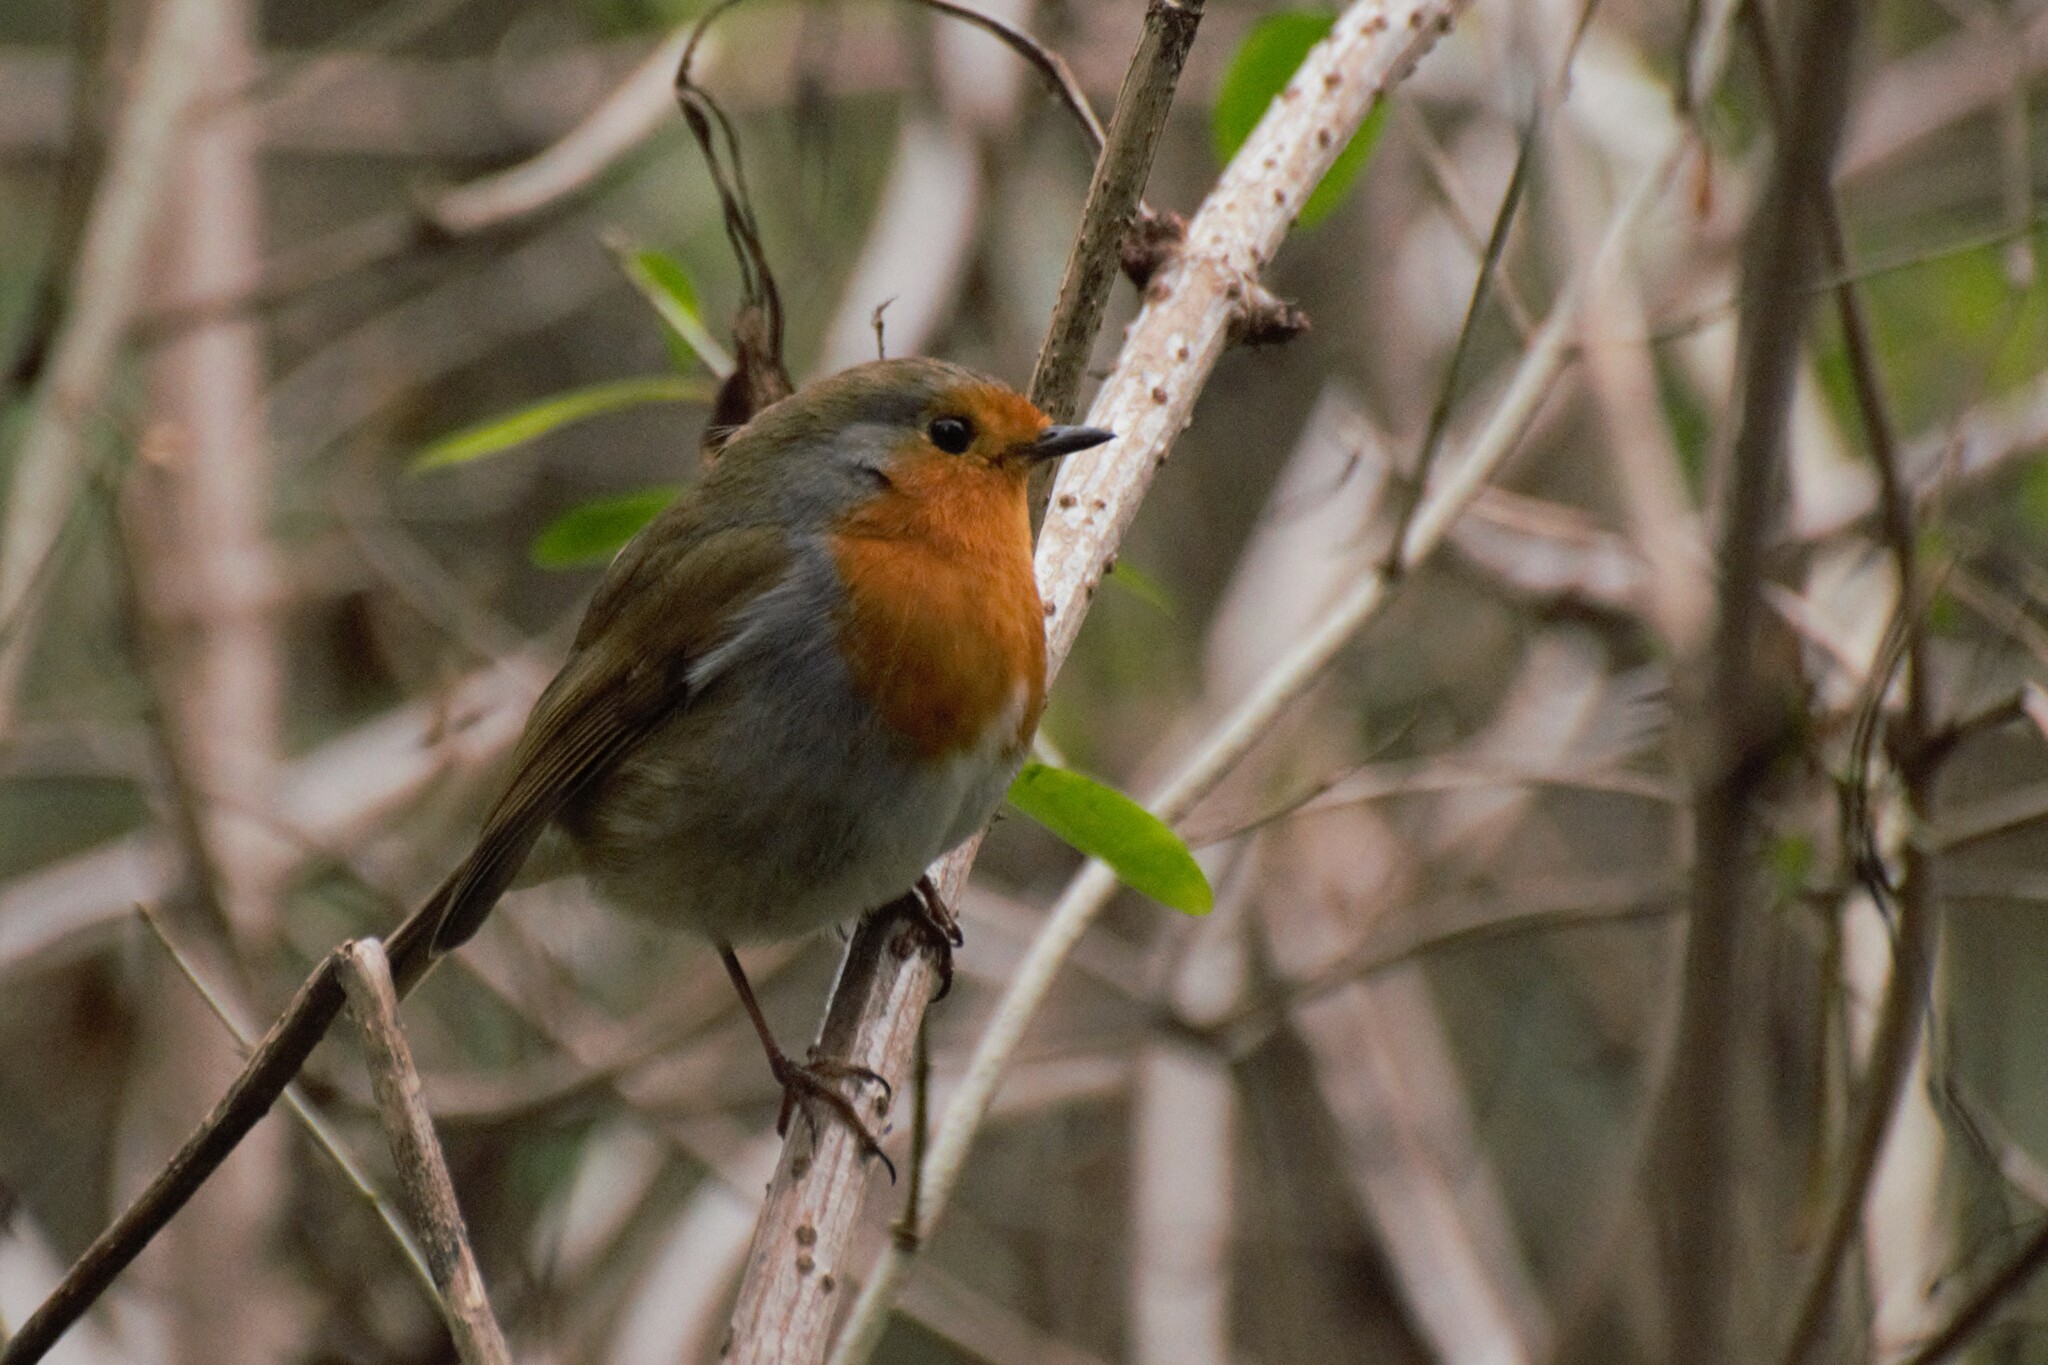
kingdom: Animalia
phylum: Chordata
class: Aves
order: Passeriformes
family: Muscicapidae
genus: Erithacus
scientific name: Erithacus rubecula
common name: European robin
